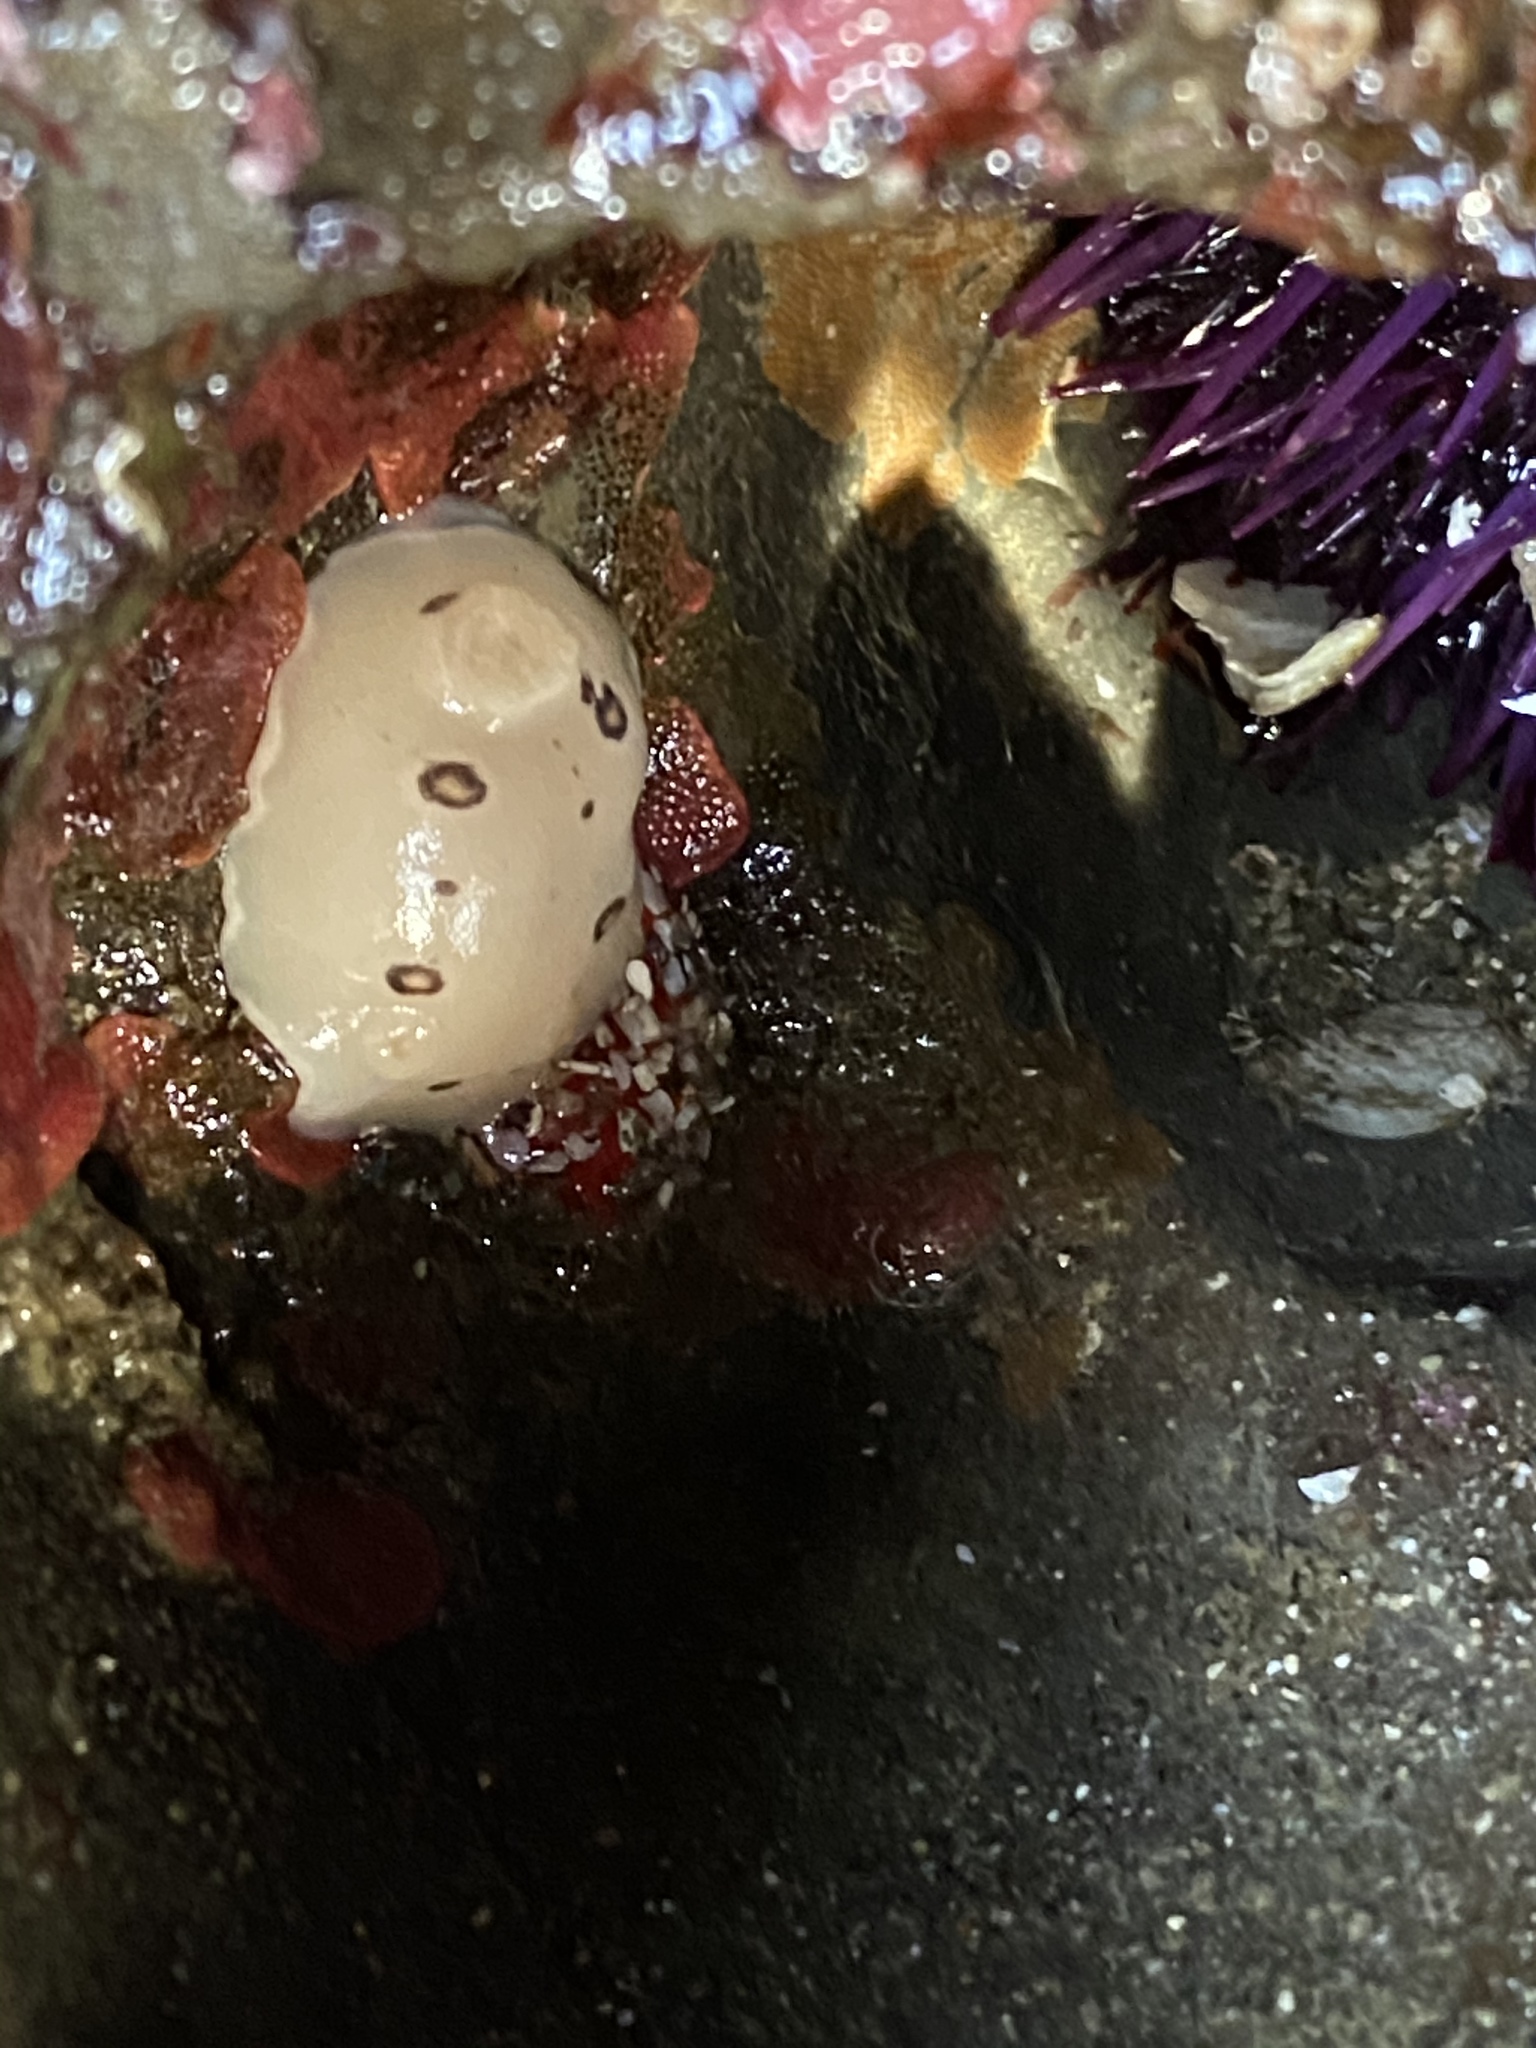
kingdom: Animalia
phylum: Mollusca
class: Gastropoda
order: Nudibranchia
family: Discodorididae
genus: Diaulula
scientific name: Diaulula sandiegensis
